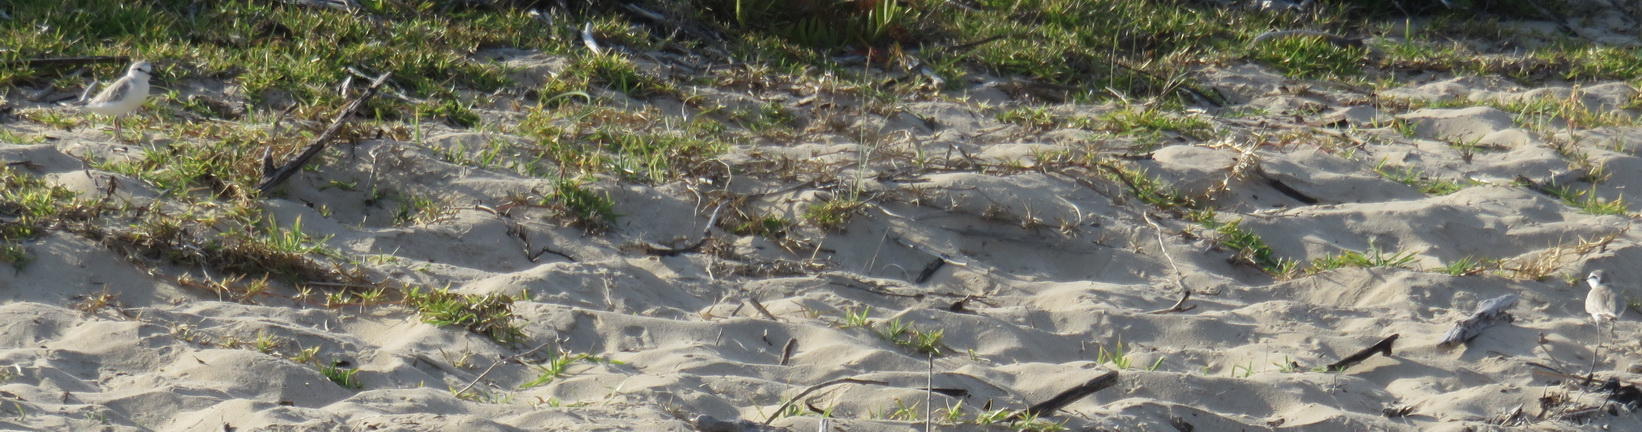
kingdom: Animalia
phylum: Chordata
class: Aves
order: Charadriiformes
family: Charadriidae
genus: Anarhynchus
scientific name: Anarhynchus
